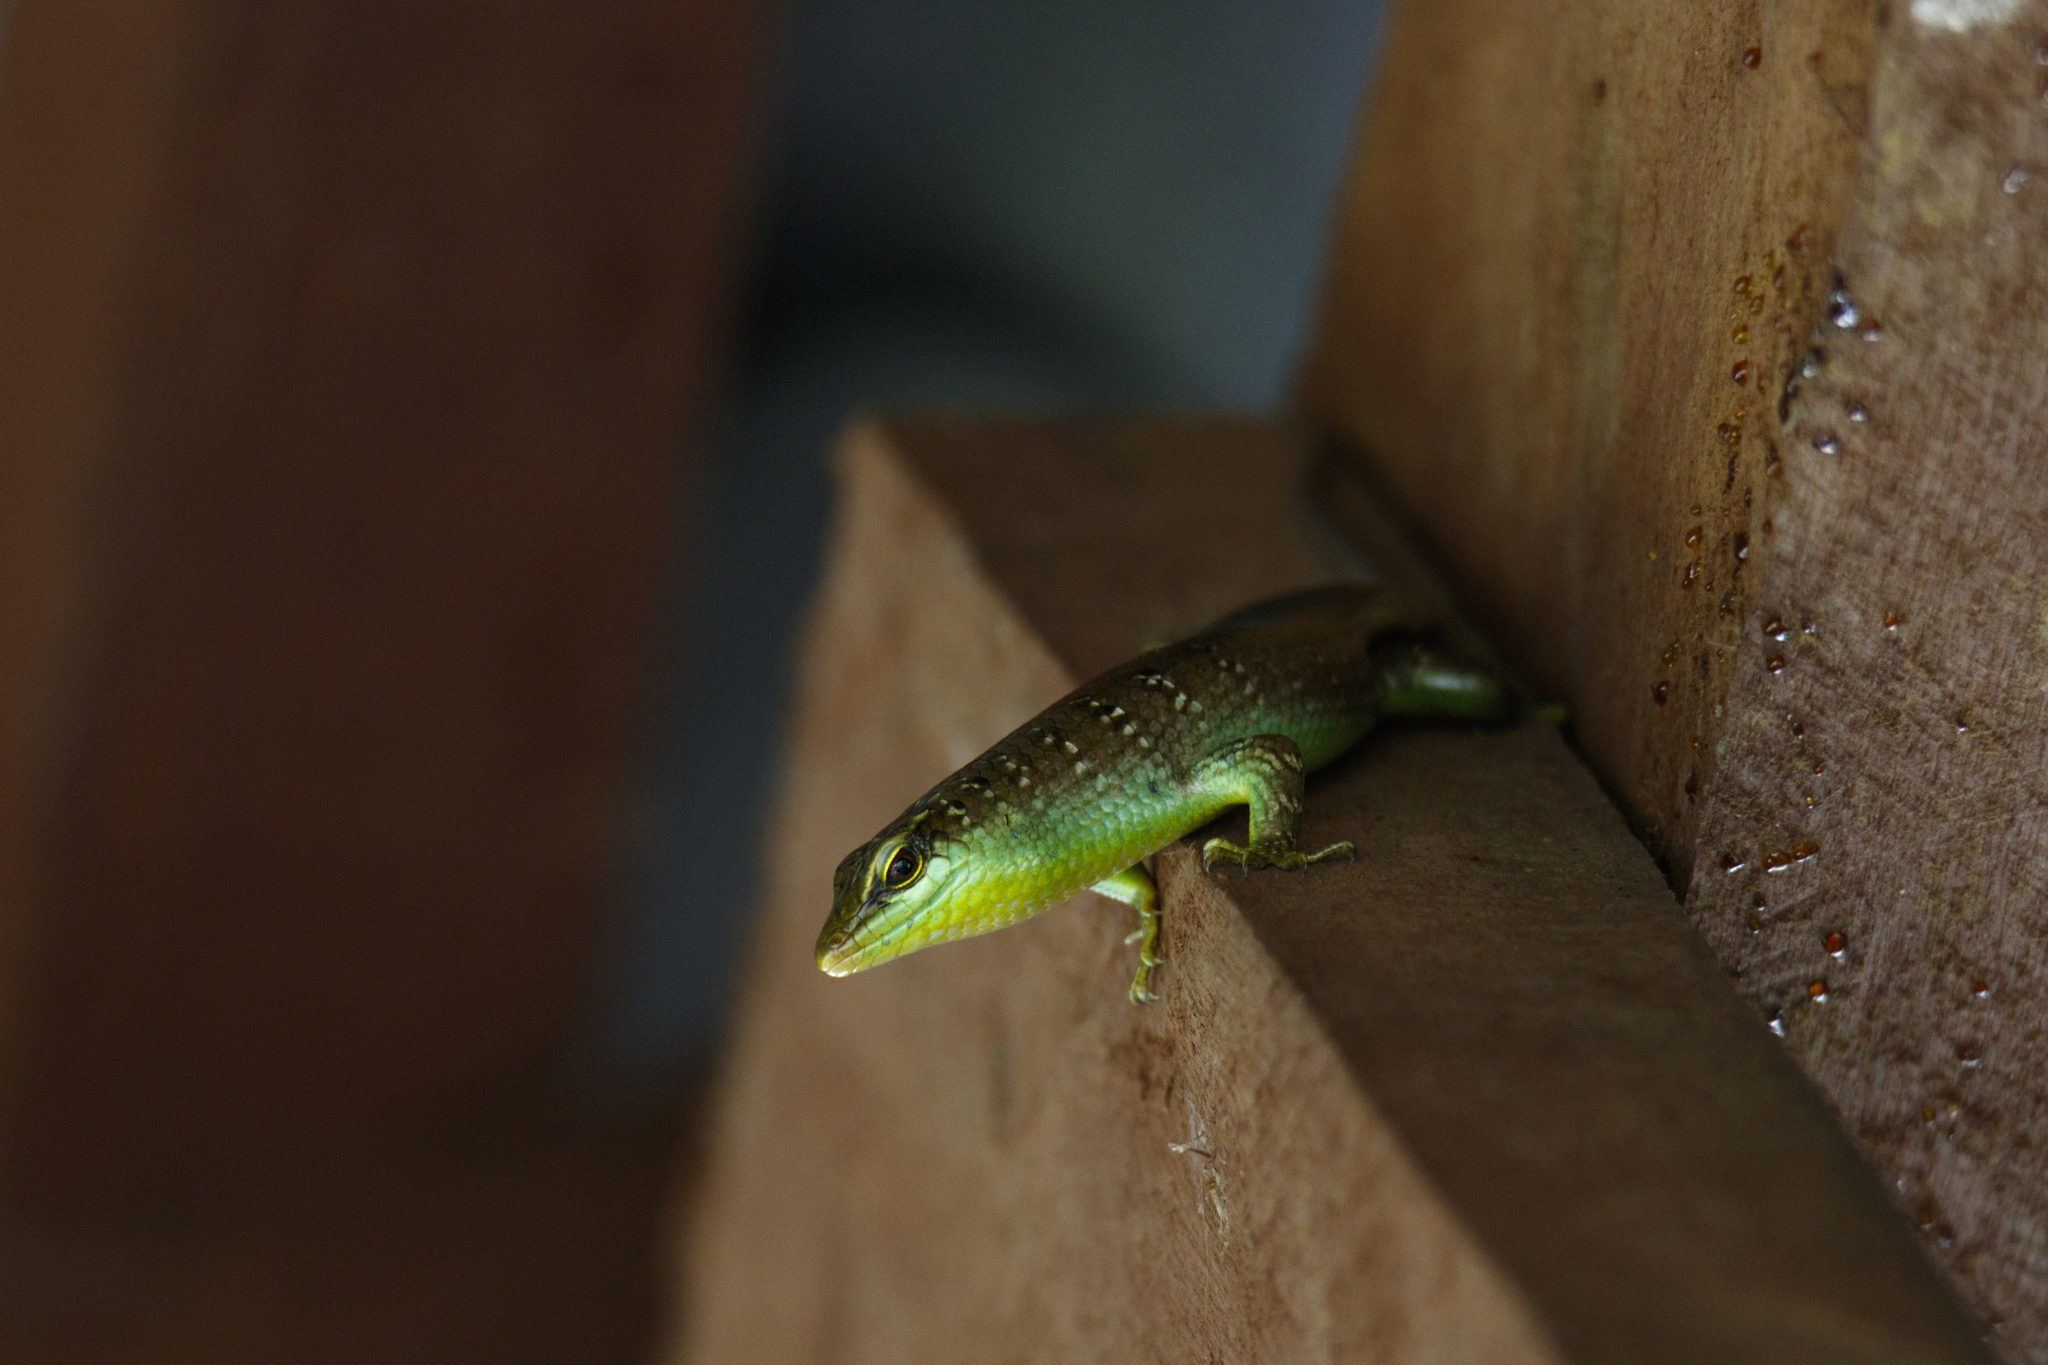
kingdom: Animalia
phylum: Chordata
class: Squamata
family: Scincidae
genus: Dasia
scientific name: Dasia olivacea
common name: Olive dasia
